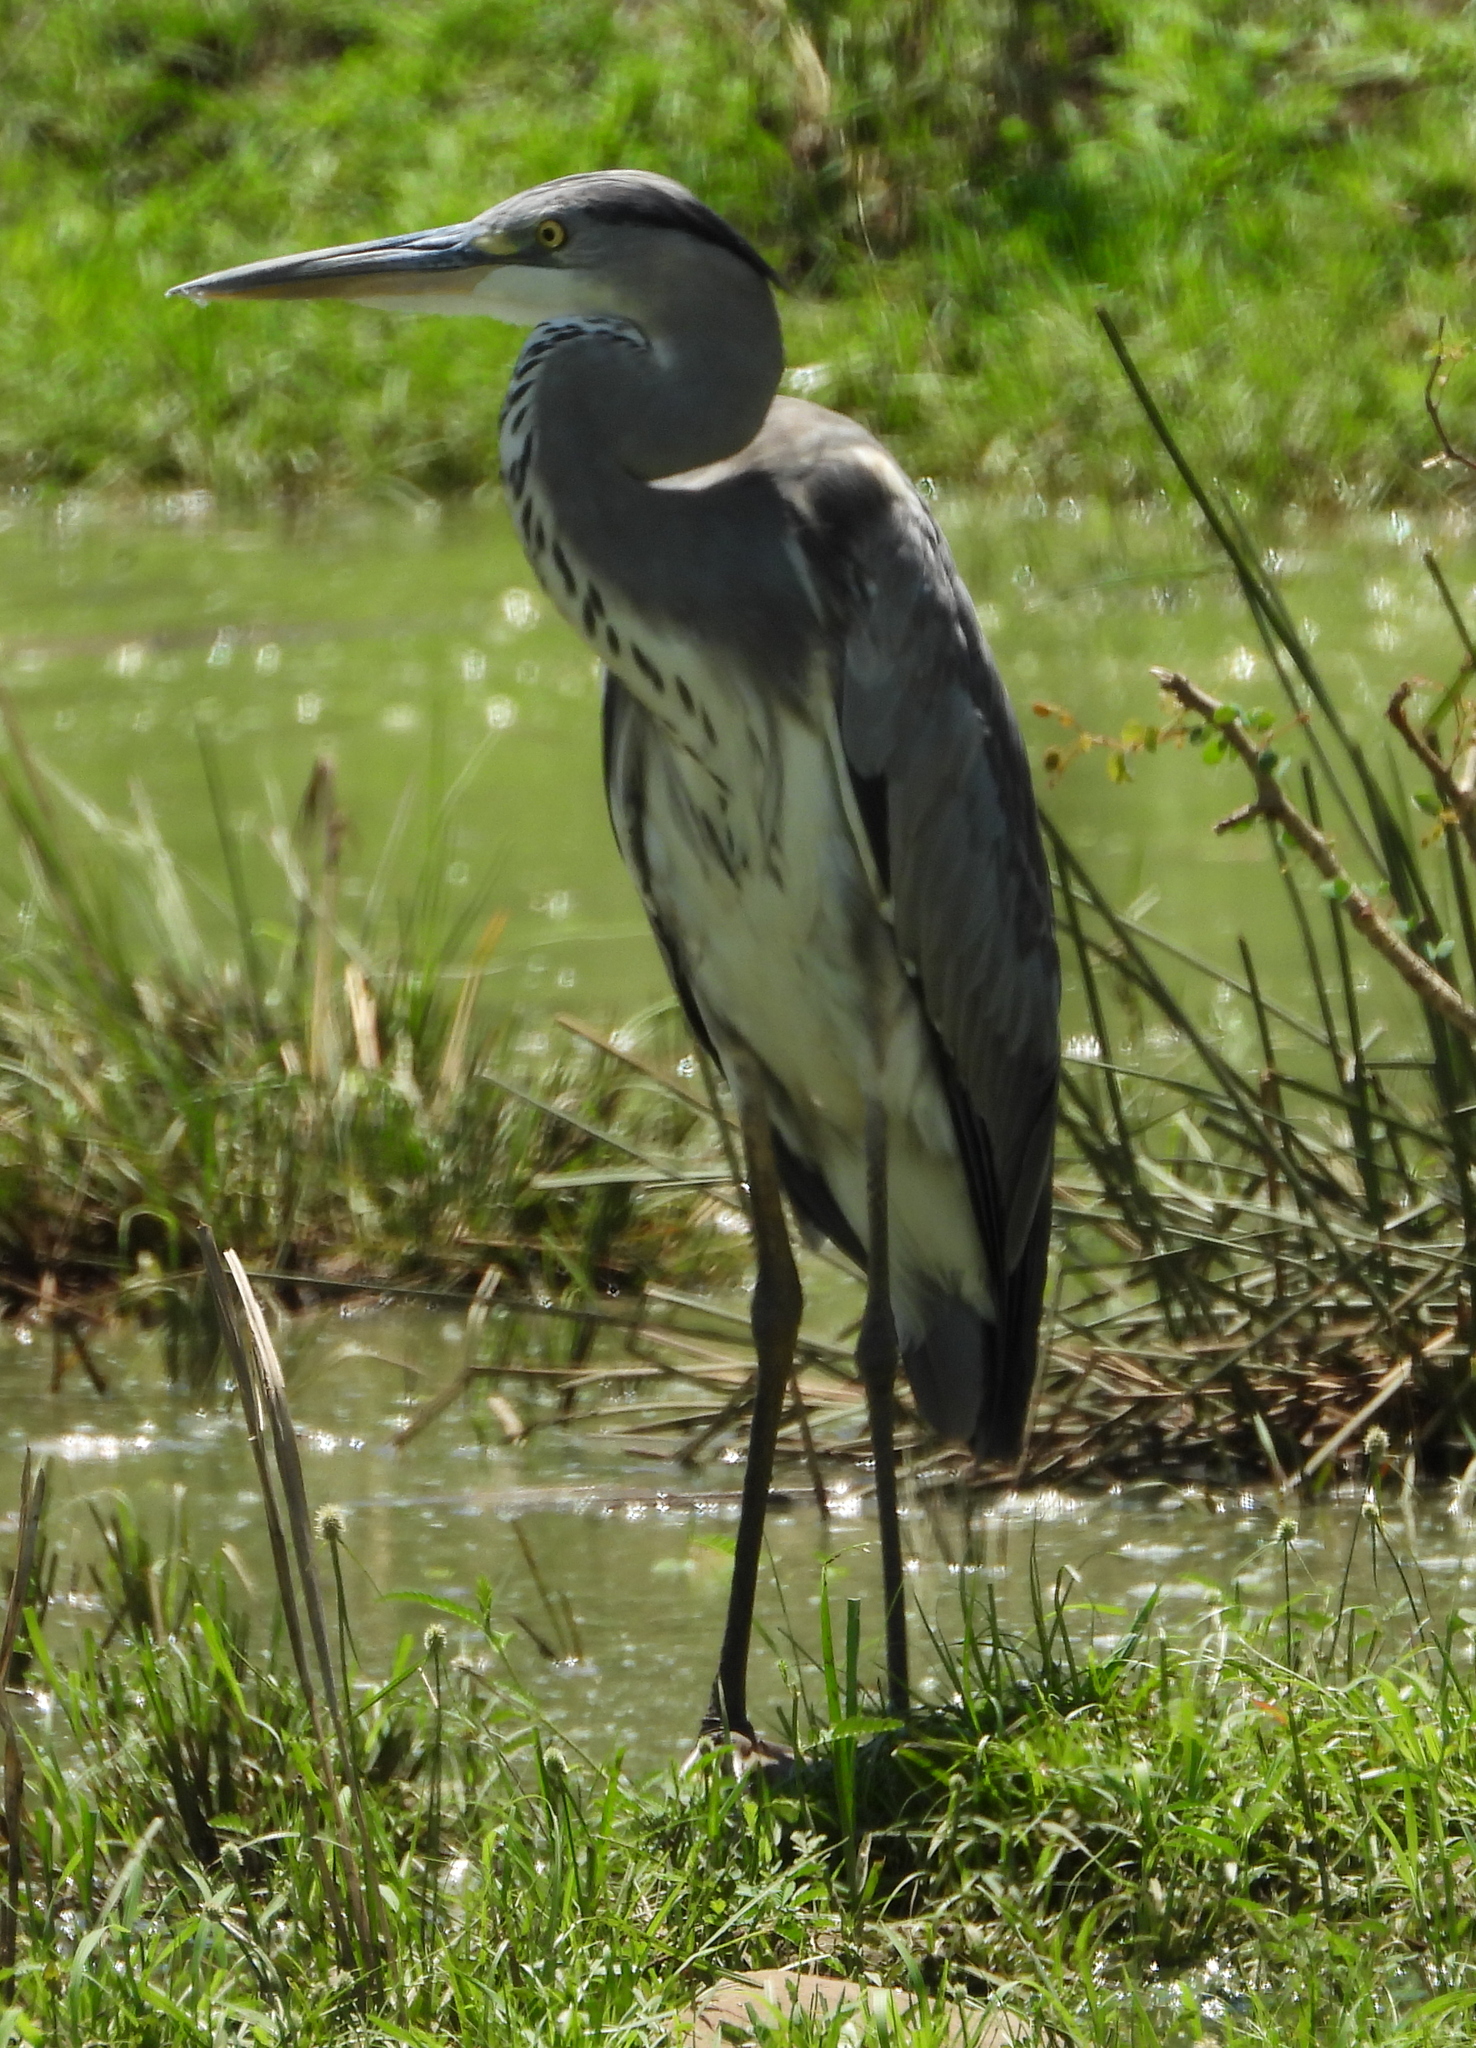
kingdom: Animalia
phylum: Chordata
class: Aves
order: Pelecaniformes
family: Ardeidae
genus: Ardea
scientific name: Ardea cinerea
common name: Grey heron
